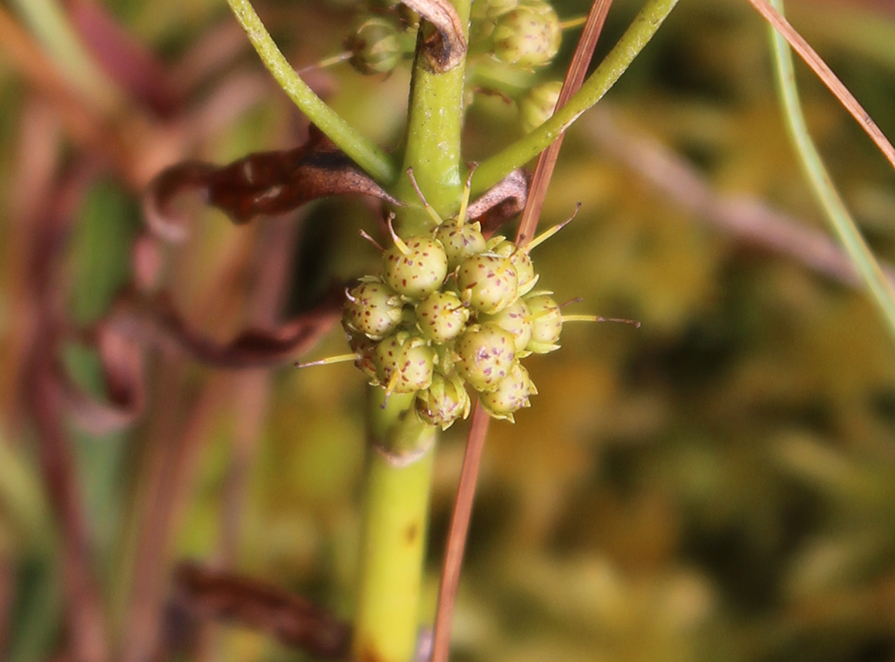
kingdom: Plantae
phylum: Tracheophyta
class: Magnoliopsida
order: Ericales
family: Primulaceae
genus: Lysimachia
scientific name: Lysimachia thyrsiflora
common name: Tufted loosestrife
